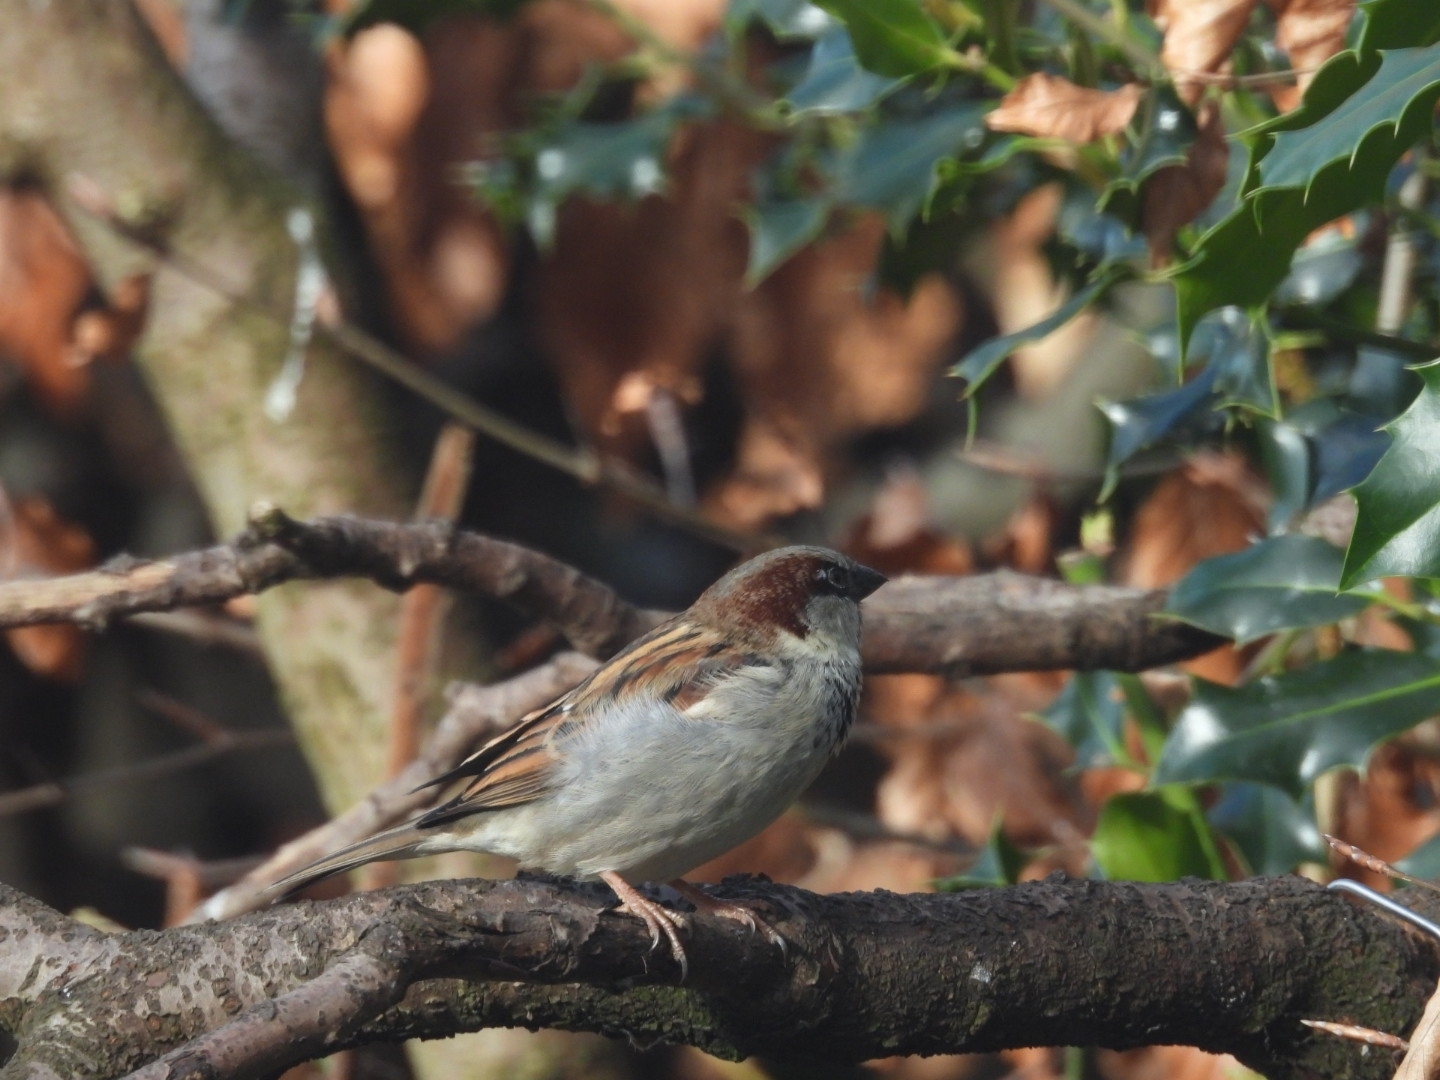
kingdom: Animalia
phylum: Chordata
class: Aves
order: Passeriformes
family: Passeridae
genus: Passer
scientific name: Passer domesticus
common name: House sparrow
